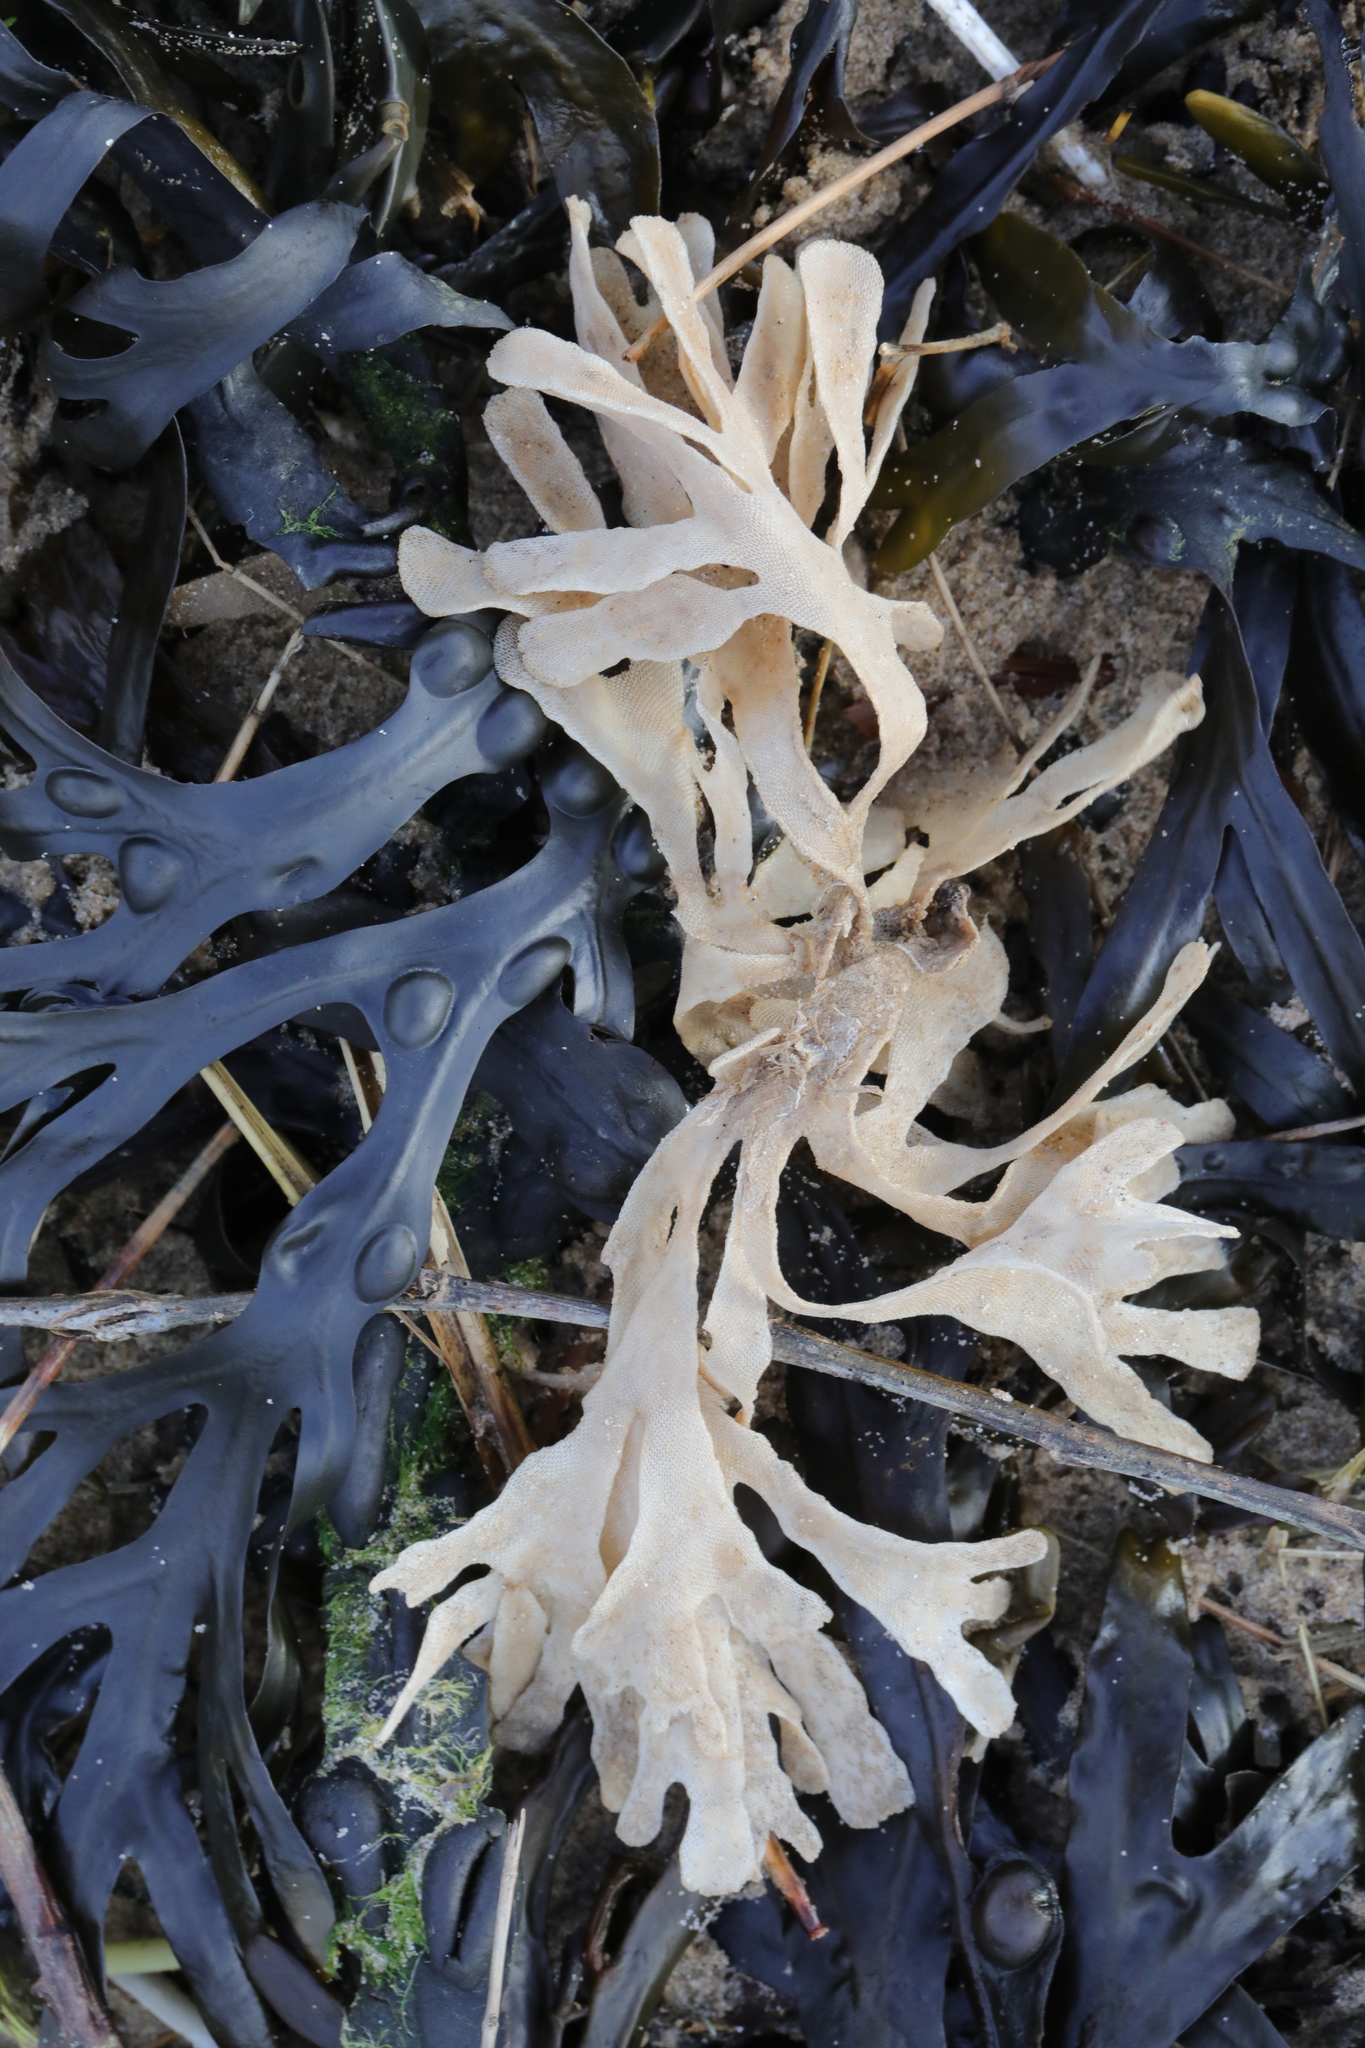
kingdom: Animalia
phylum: Bryozoa
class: Gymnolaemata
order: Cheilostomatida
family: Flustridae
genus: Flustra
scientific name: Flustra foliacea
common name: Hornwrack
